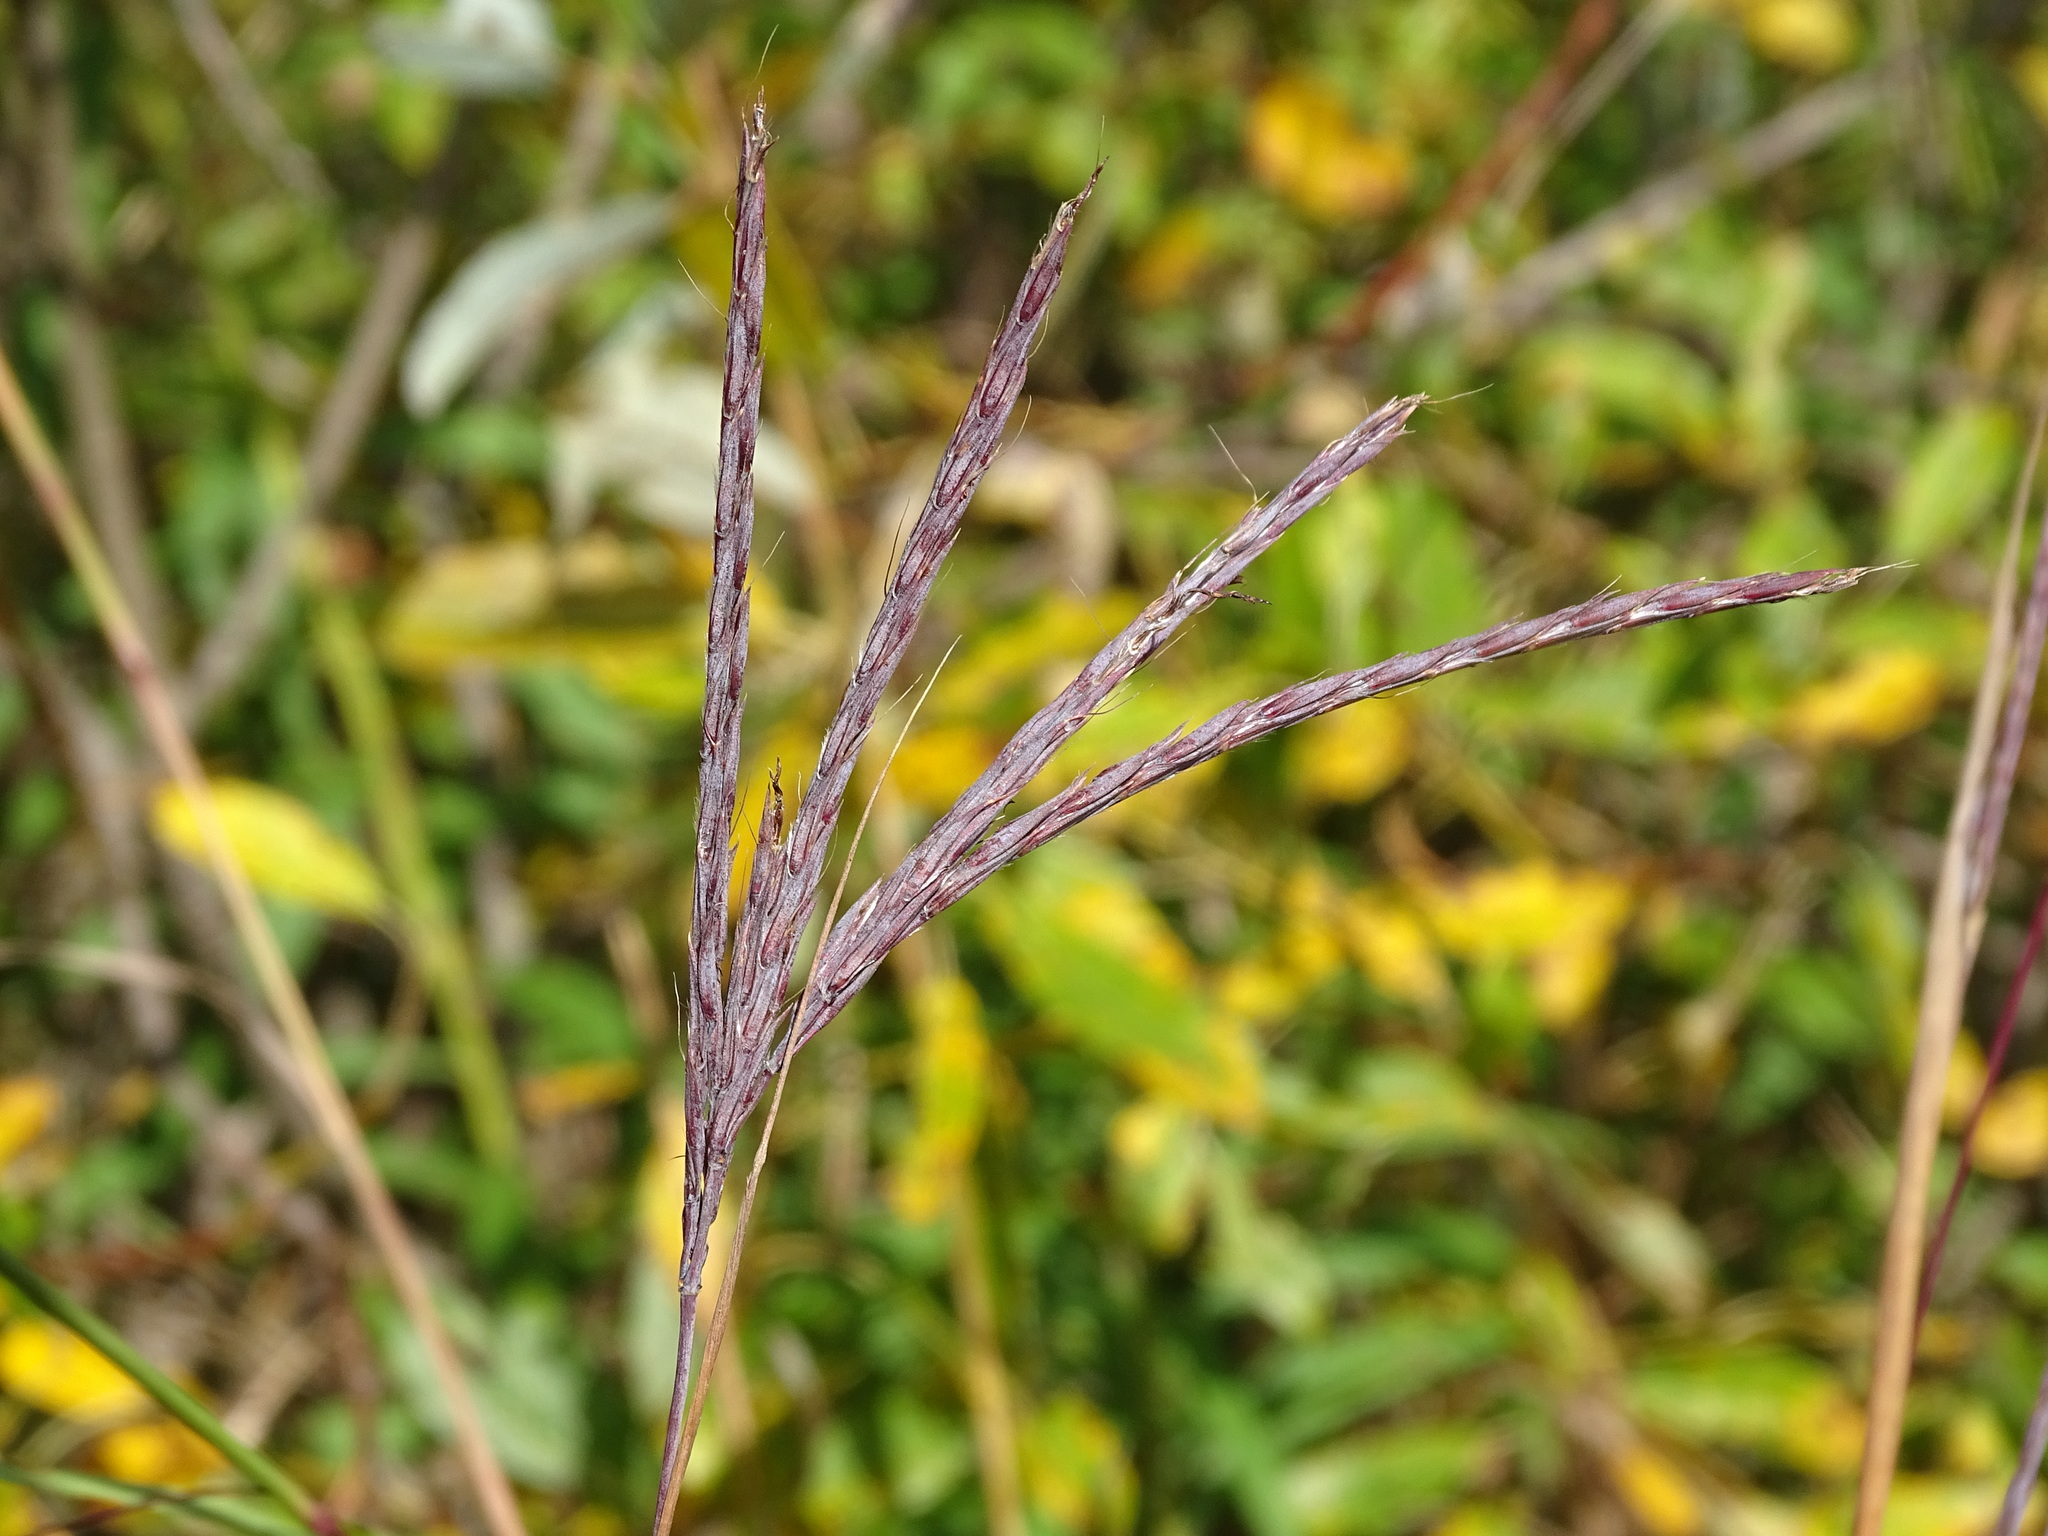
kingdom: Plantae
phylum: Tracheophyta
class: Liliopsida
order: Poales
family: Poaceae
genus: Andropogon
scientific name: Andropogon gerardi
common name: Big bluestem
